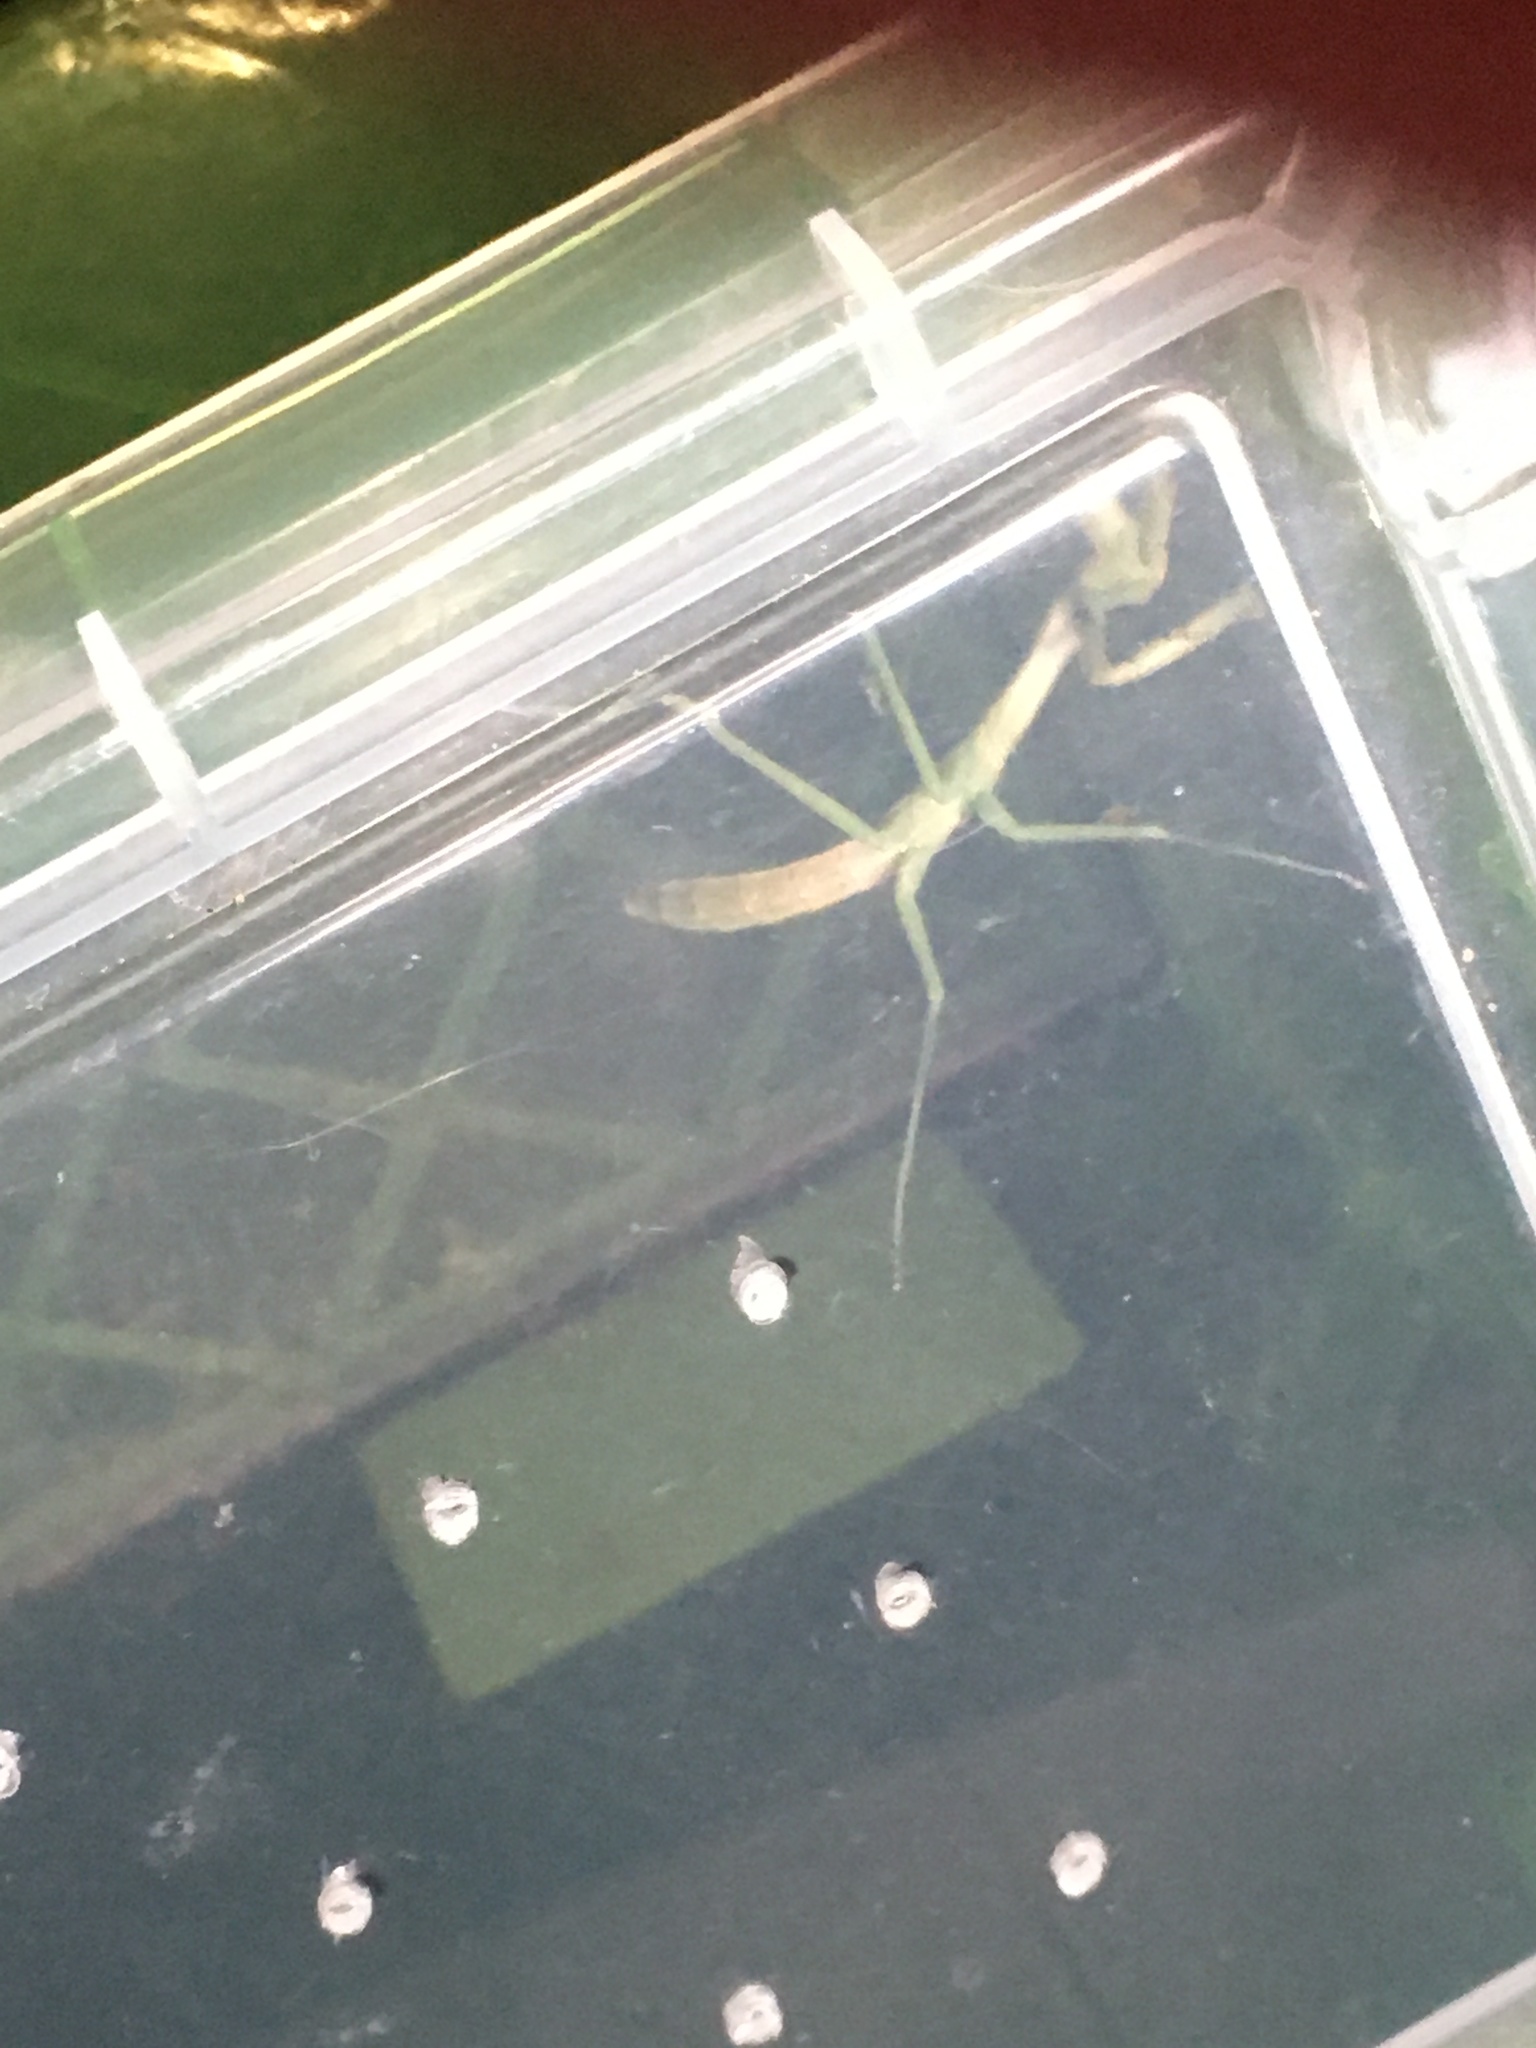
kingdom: Animalia
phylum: Arthropoda
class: Insecta
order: Mantodea
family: Mantidae
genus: Stagmomantis
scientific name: Stagmomantis carolina
